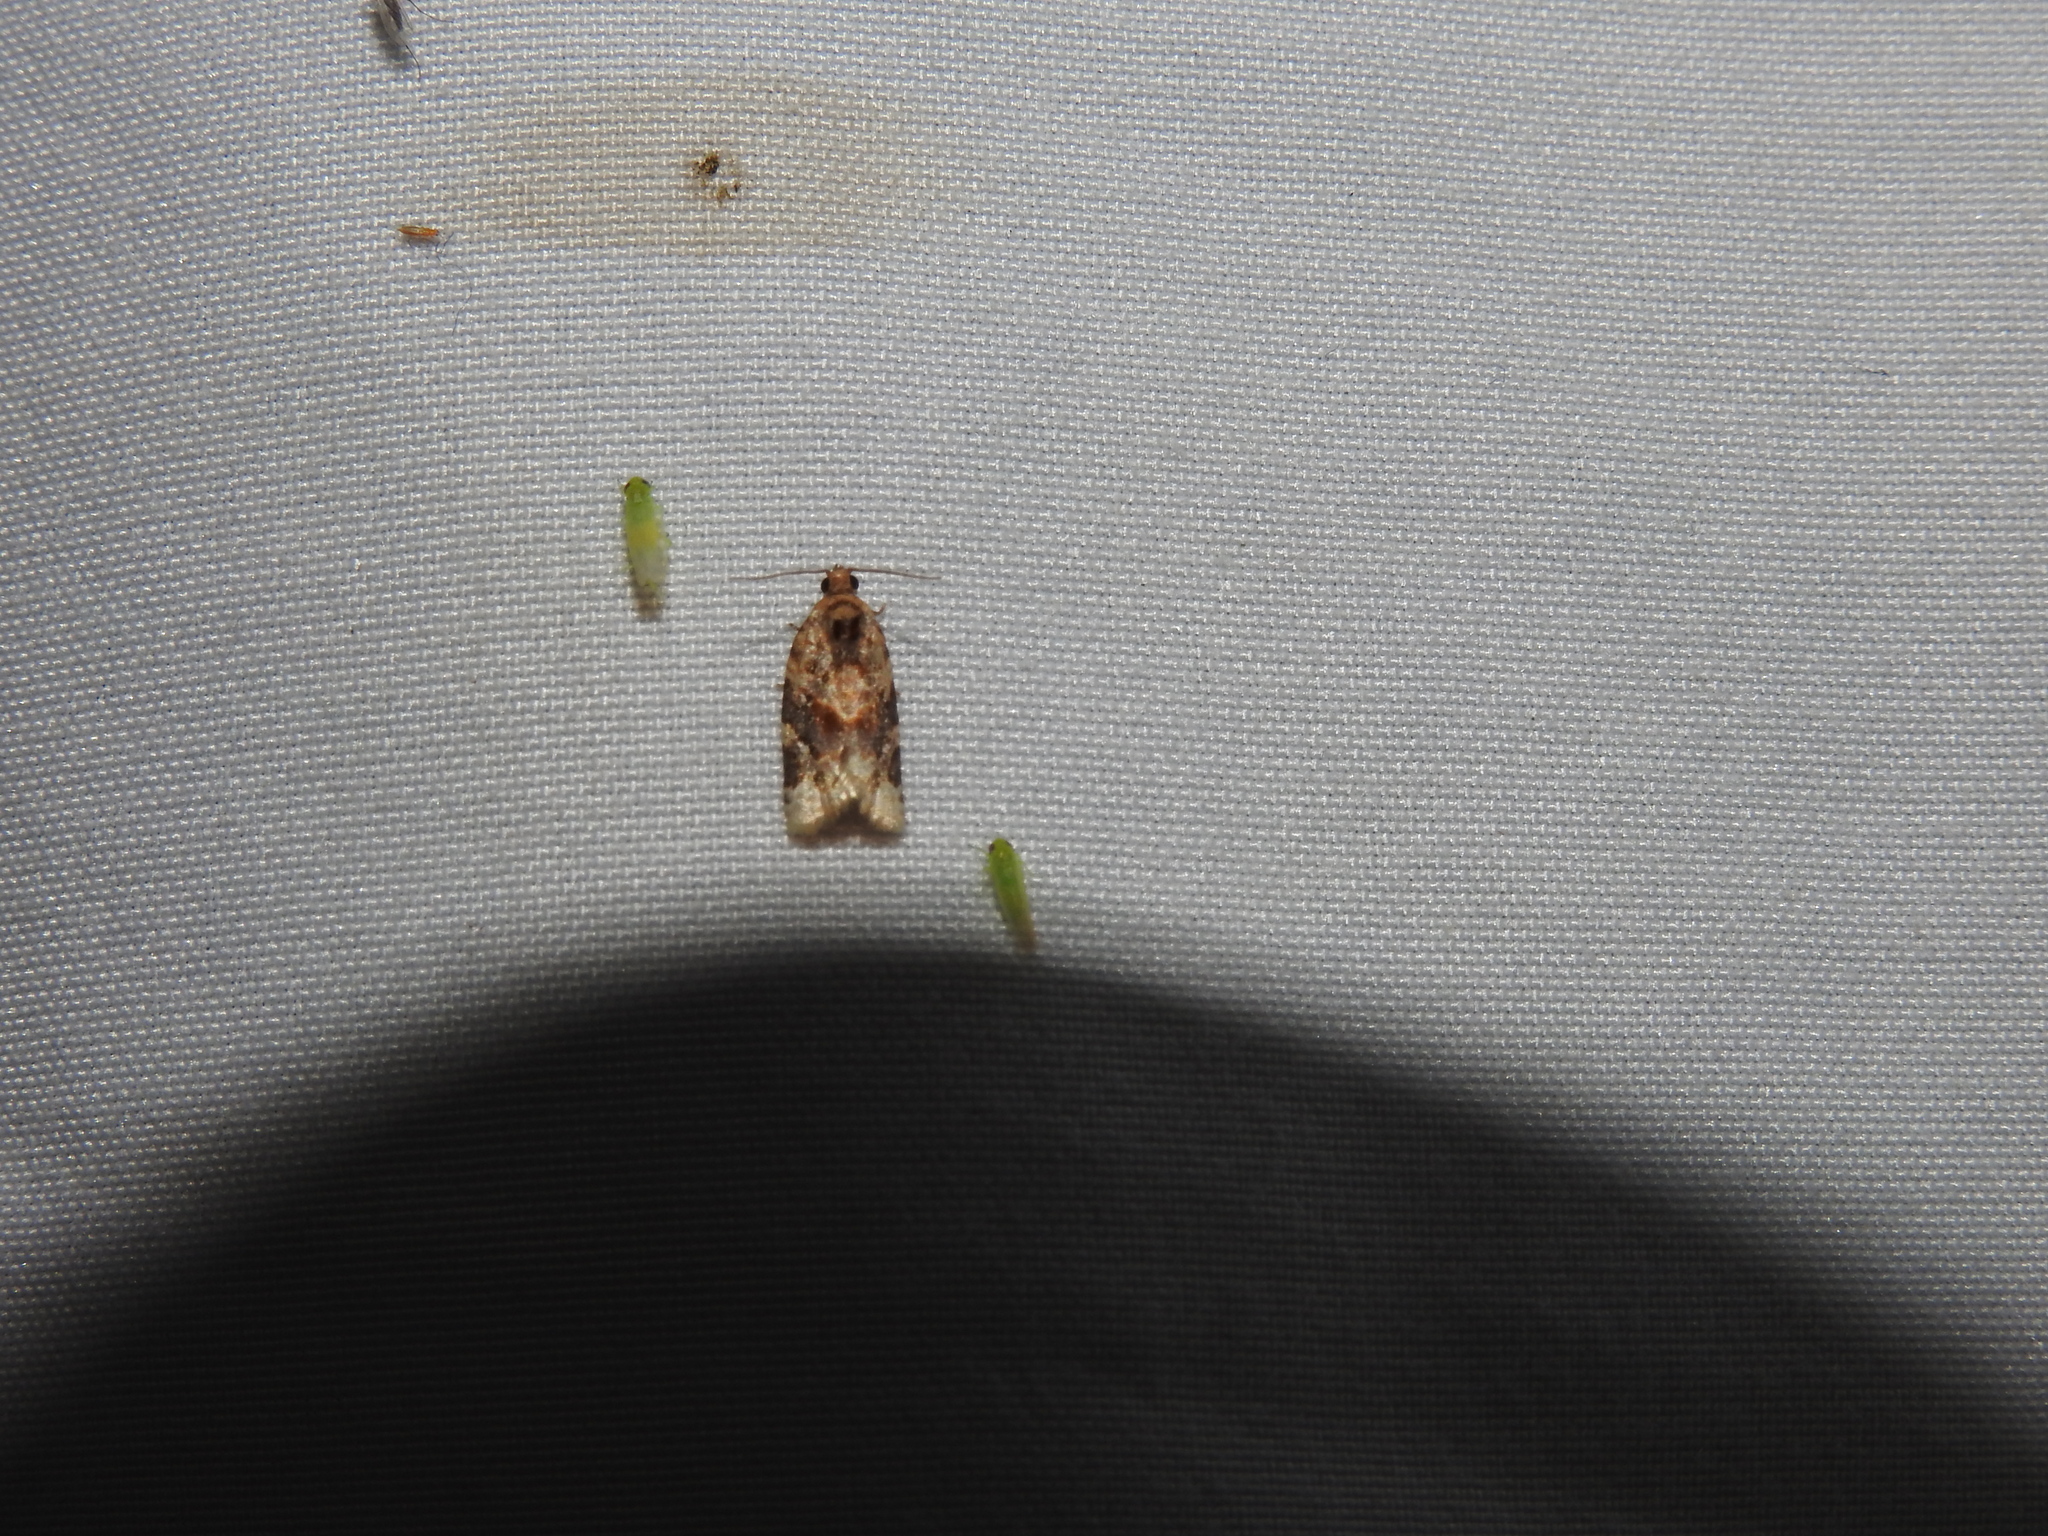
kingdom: Animalia
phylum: Arthropoda
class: Insecta
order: Lepidoptera
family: Tortricidae
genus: Argyrotaenia
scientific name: Argyrotaenia velutinana
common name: Red-banded leafroller moth
